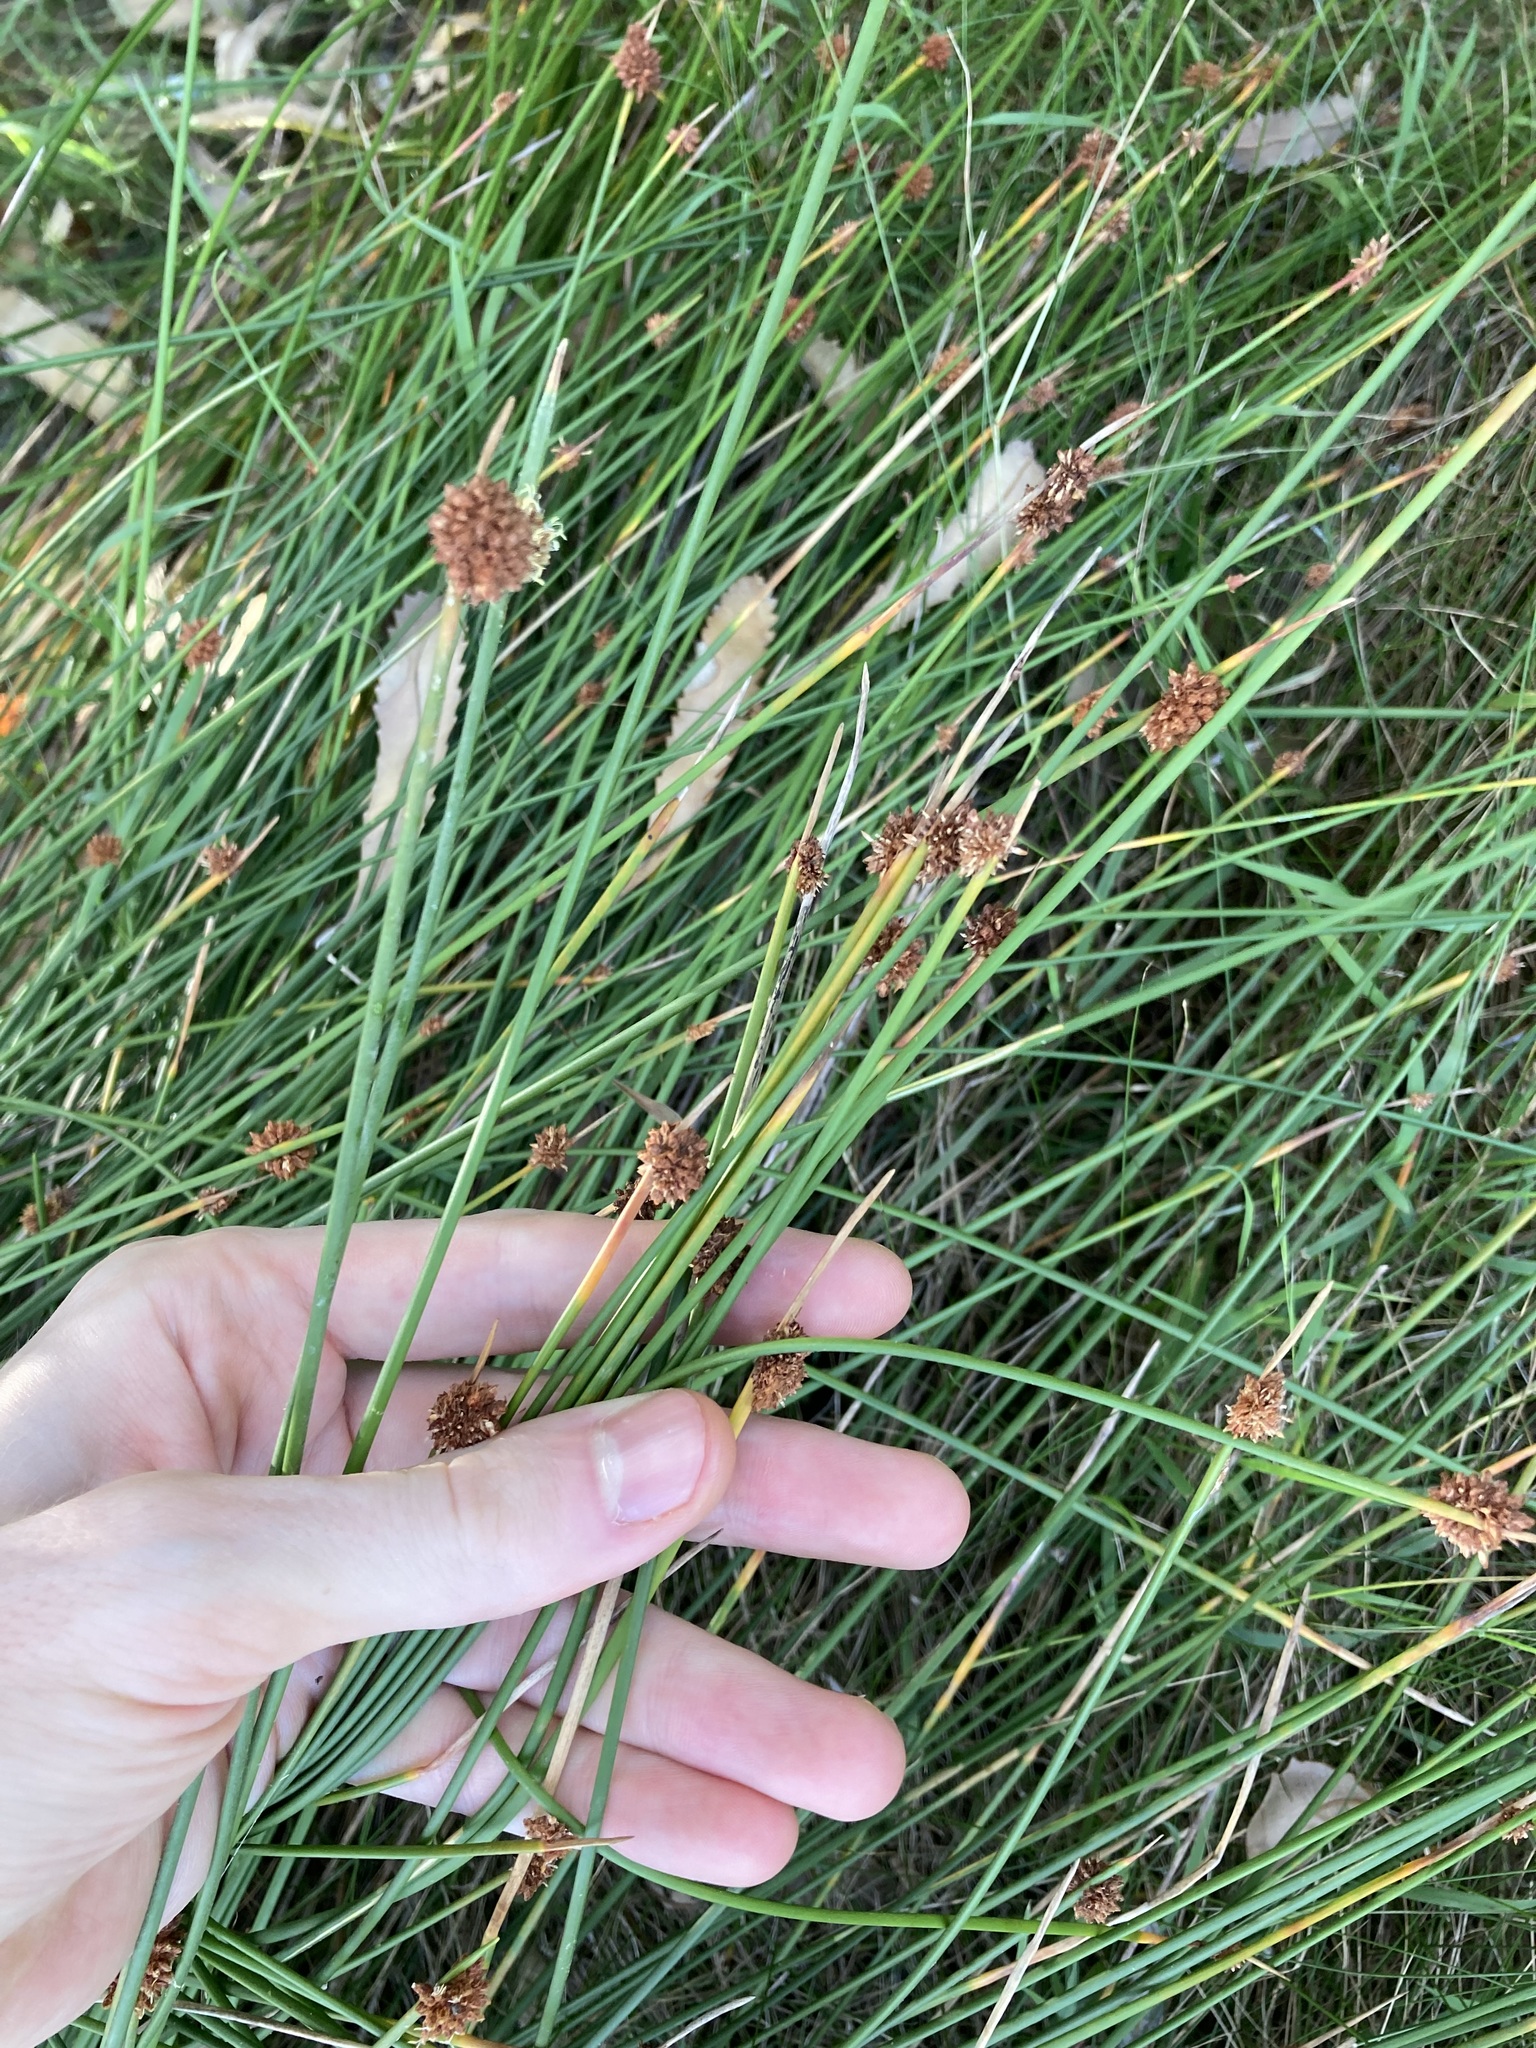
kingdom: Plantae
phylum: Tracheophyta
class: Liliopsida
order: Poales
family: Cyperaceae
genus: Ficinia
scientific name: Ficinia nodosa
